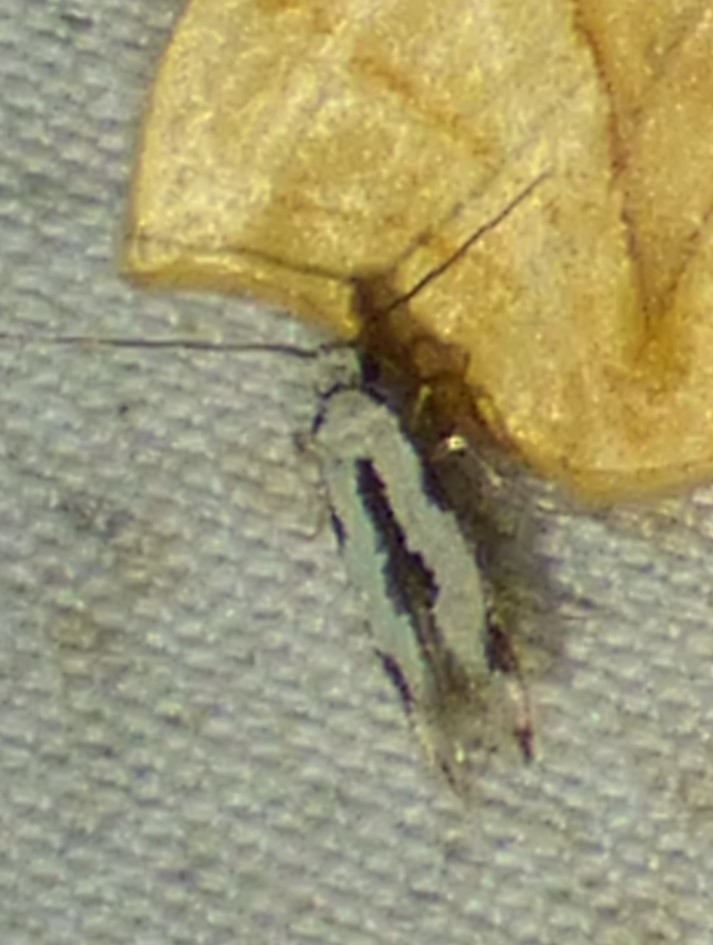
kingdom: Animalia
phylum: Arthropoda
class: Insecta
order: Lepidoptera
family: Meessiidae
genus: Mea
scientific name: Mea bipunctella
